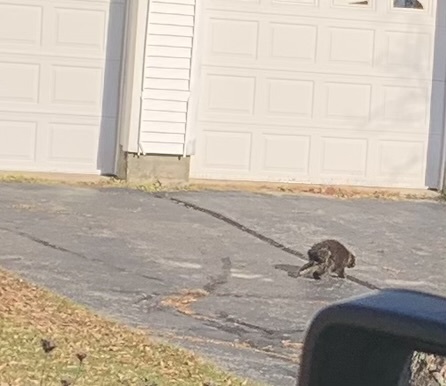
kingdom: Animalia
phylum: Chordata
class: Mammalia
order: Rodentia
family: Erethizontidae
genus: Erethizon
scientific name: Erethizon dorsatus
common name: North american porcupine
